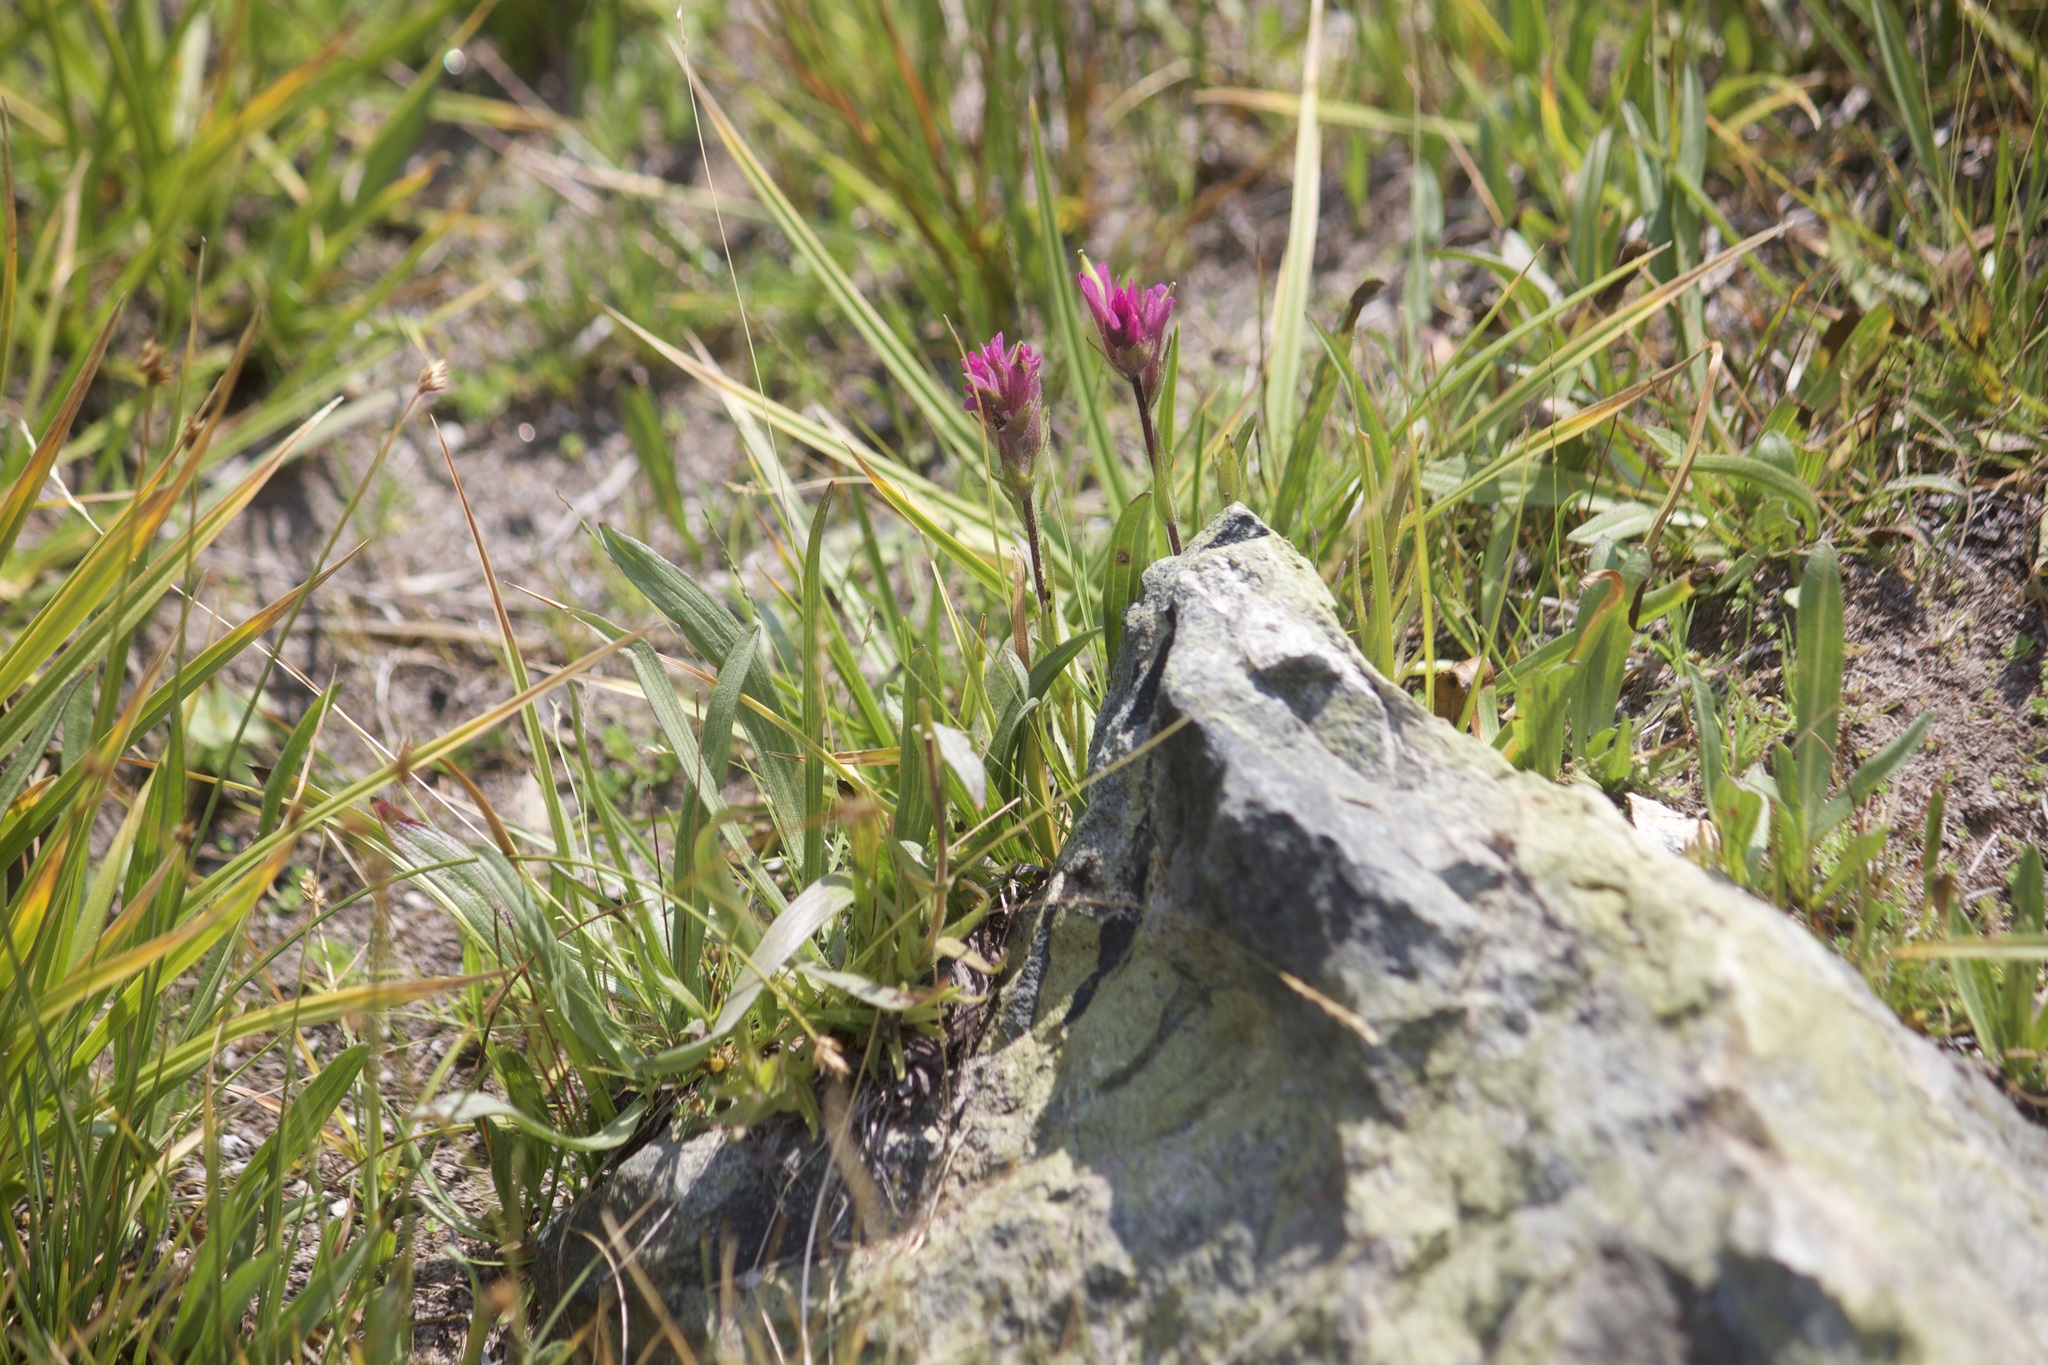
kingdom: Plantae
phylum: Tracheophyta
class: Magnoliopsida
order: Lamiales
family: Orobanchaceae
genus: Castilleja
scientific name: Castilleja lemmonii
